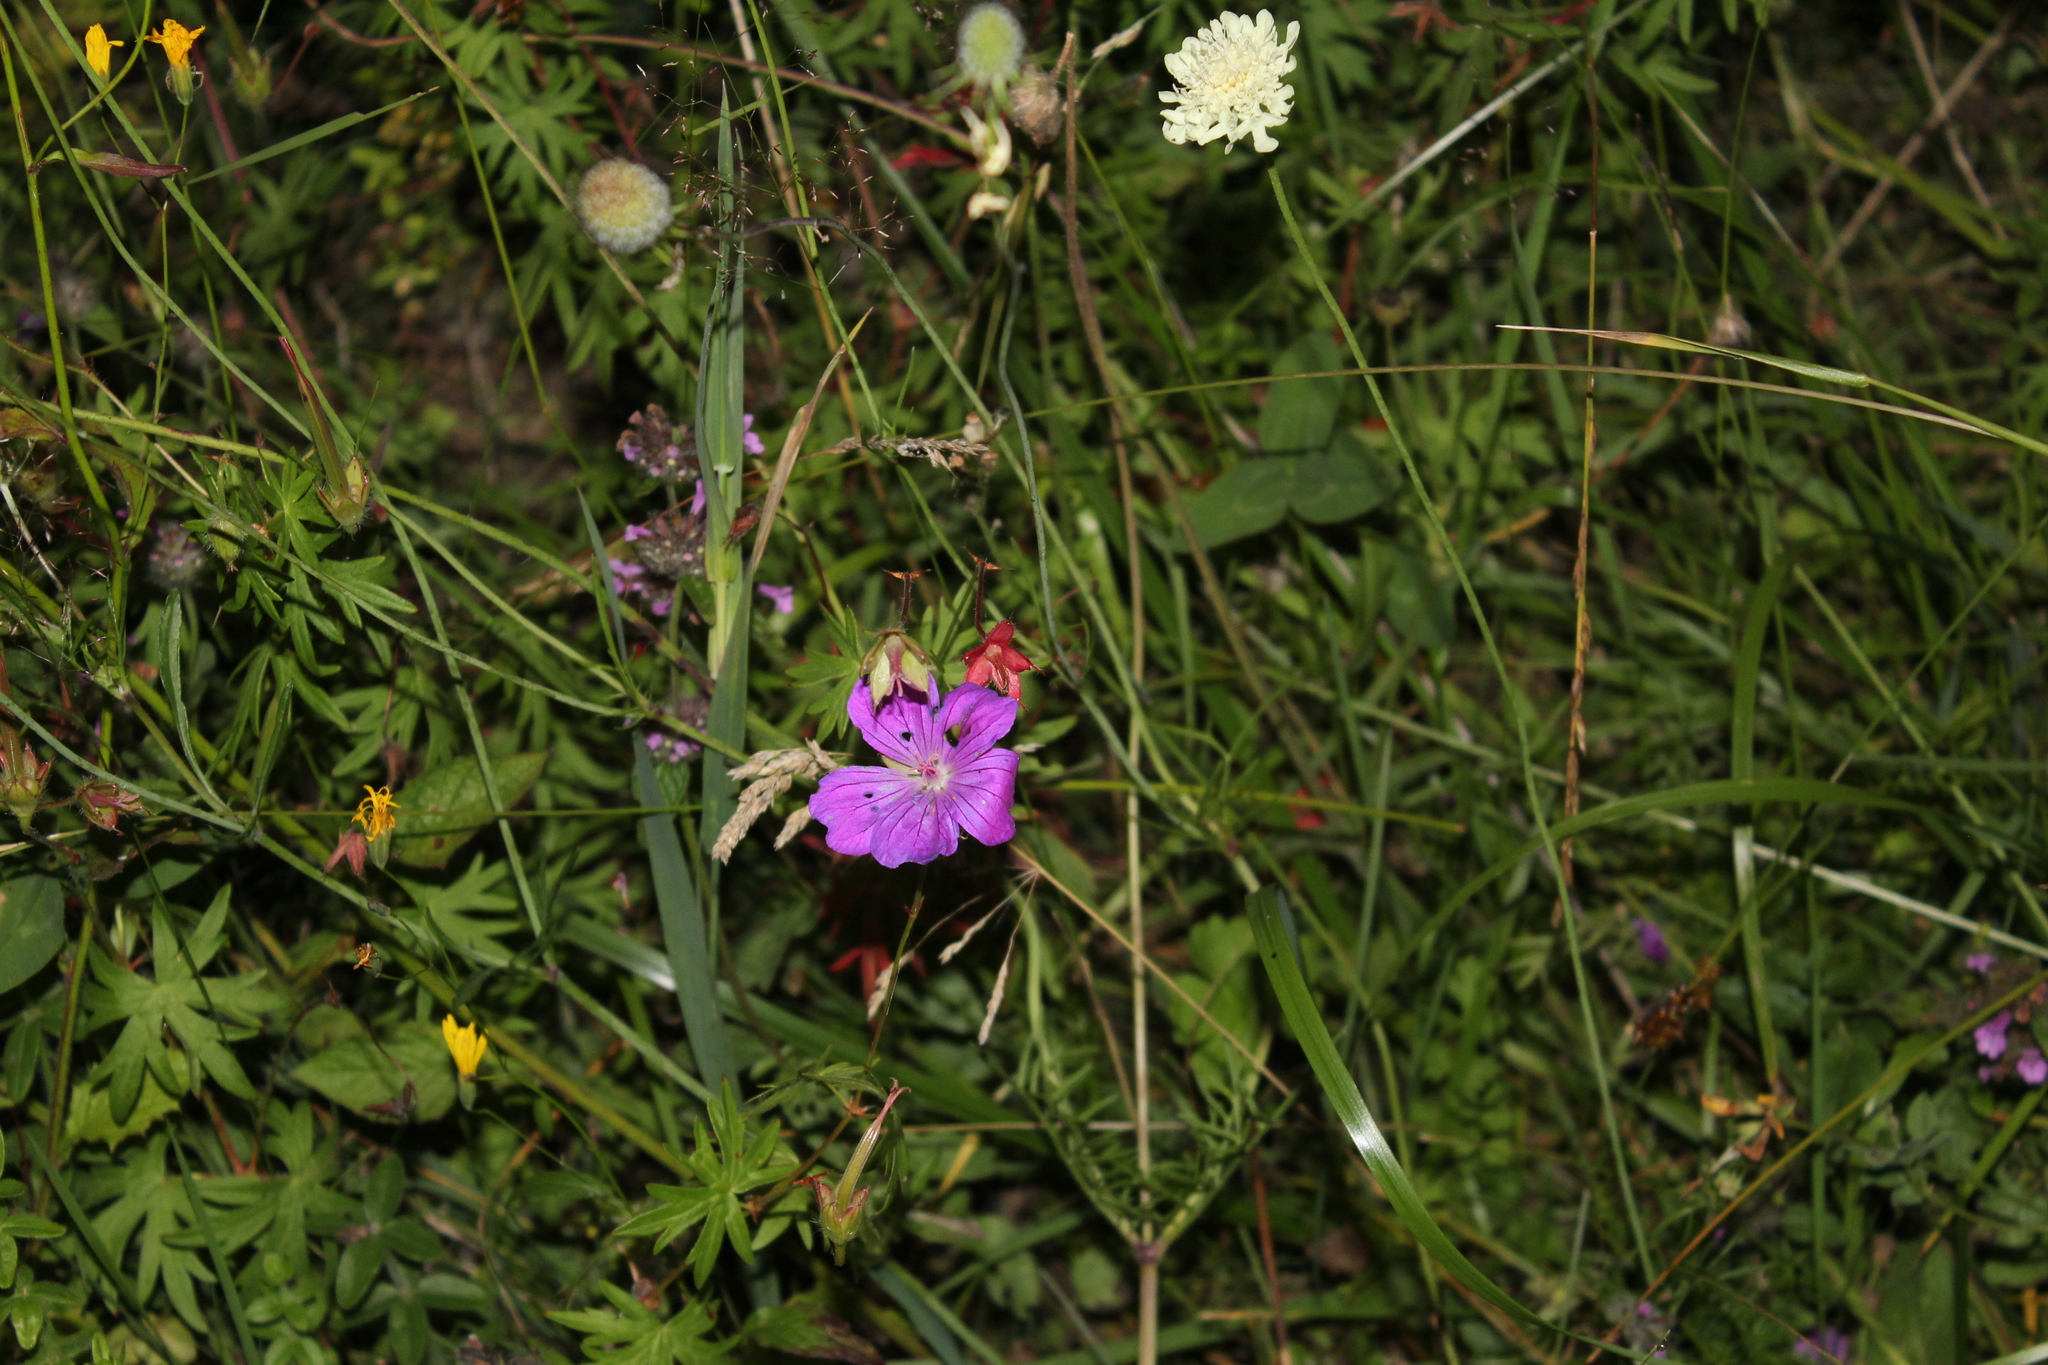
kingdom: Plantae
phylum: Tracheophyta
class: Magnoliopsida
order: Geraniales
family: Geraniaceae
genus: Geranium
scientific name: Geranium sanguineum
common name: Bloody crane's-bill
